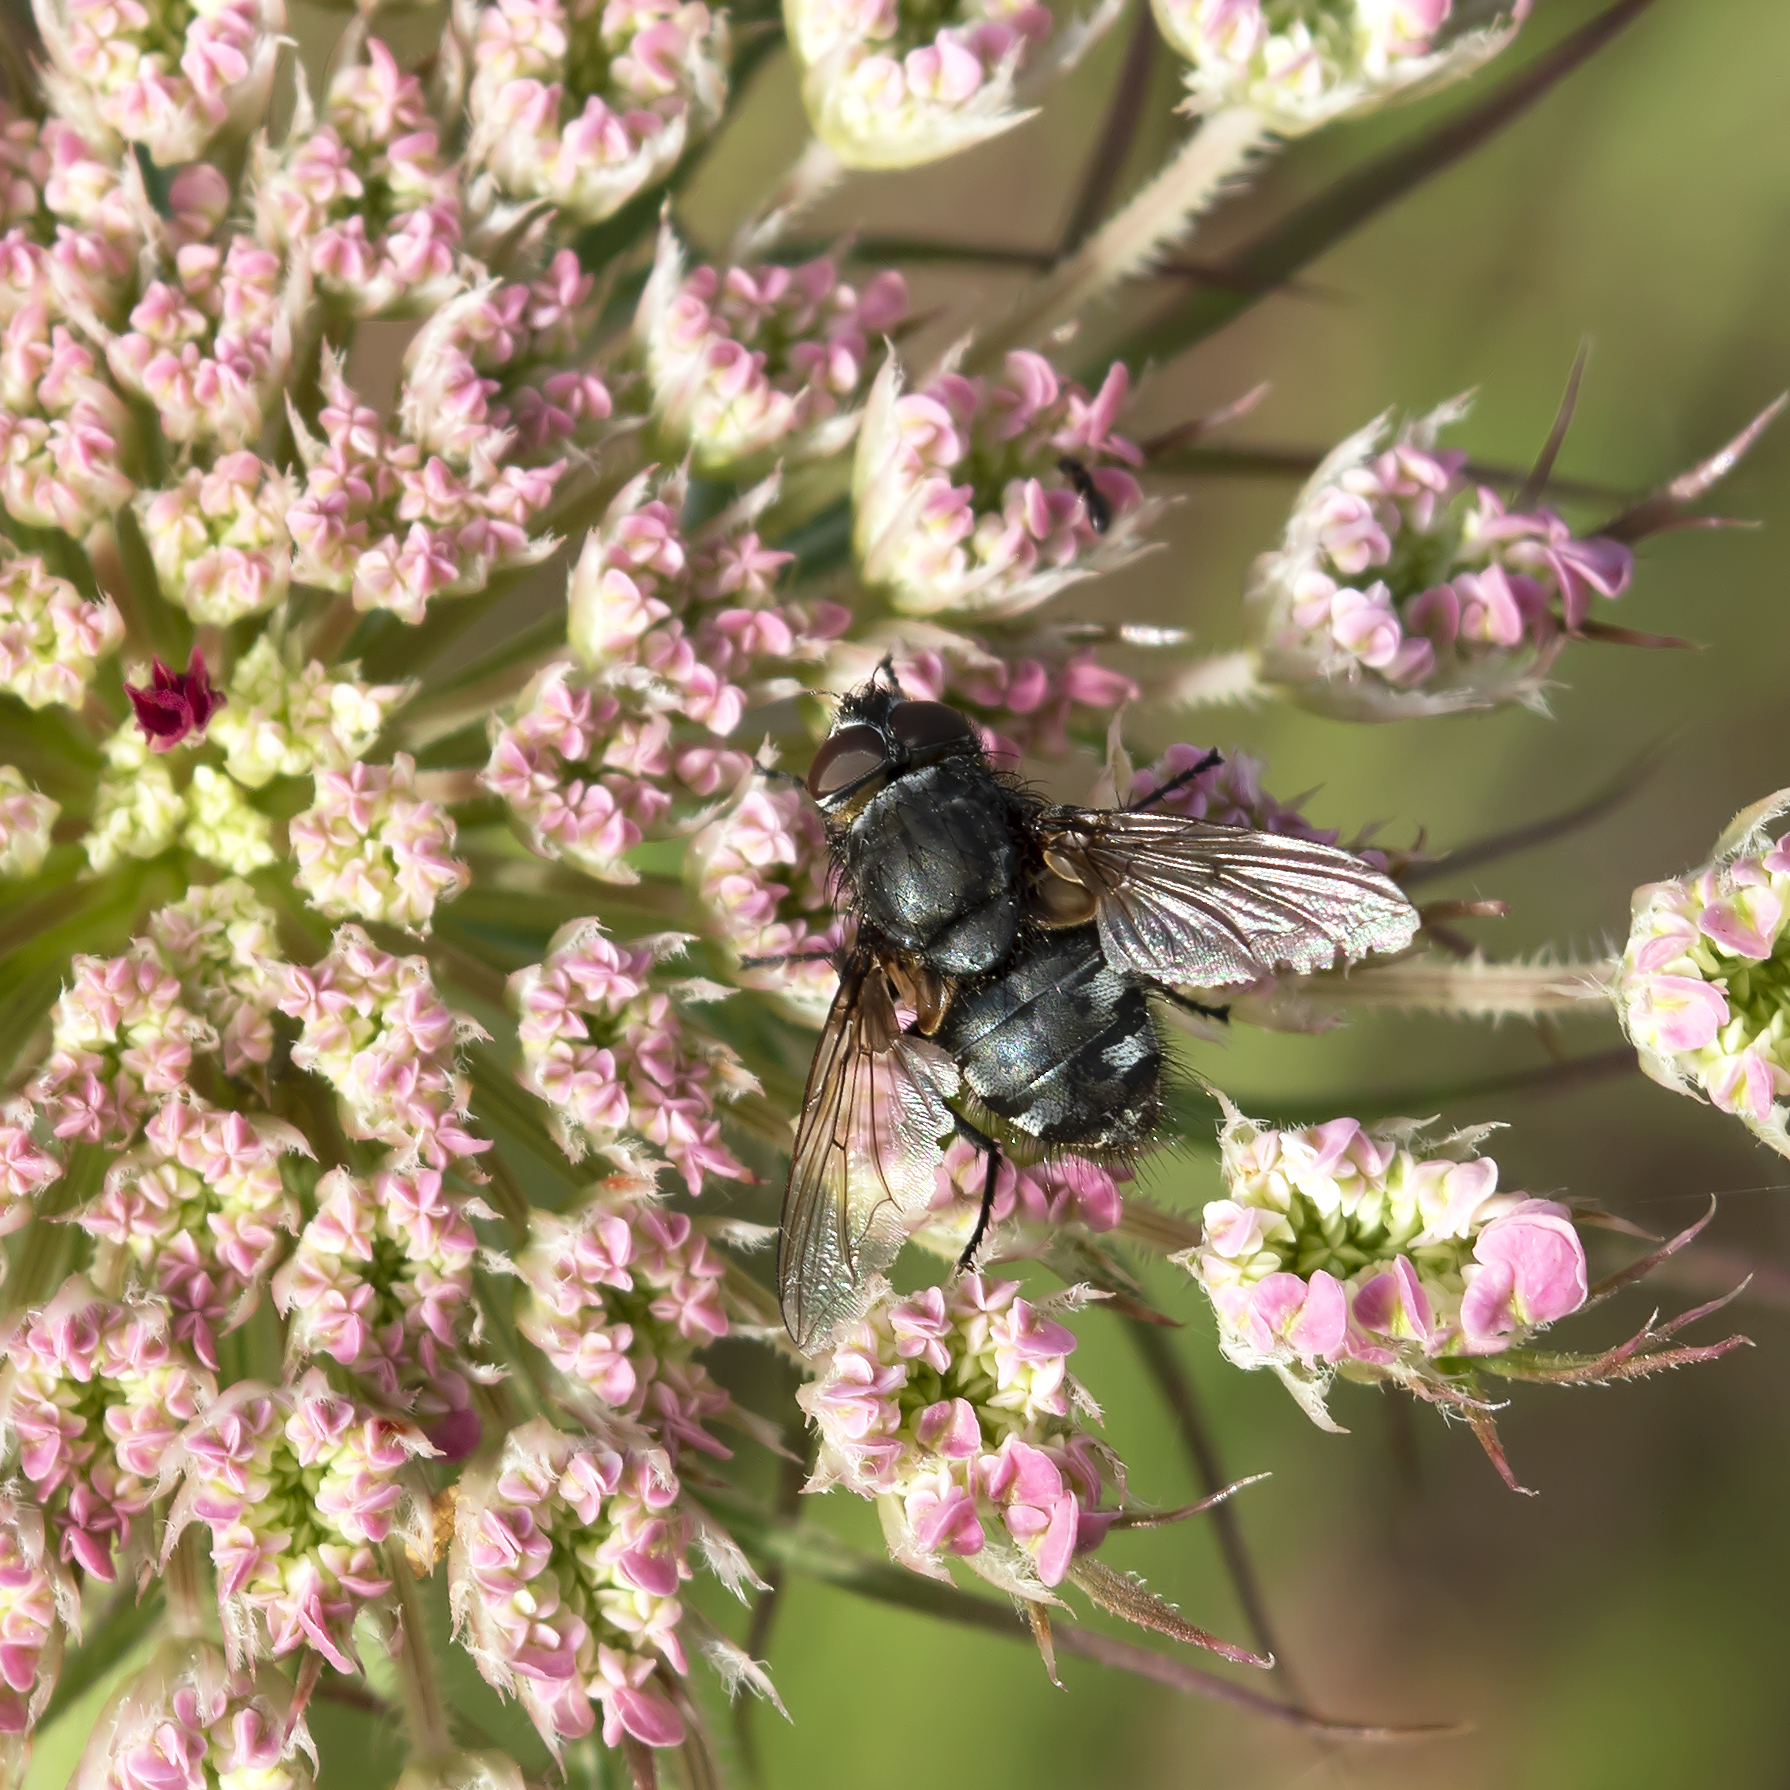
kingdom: Animalia
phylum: Arthropoda
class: Insecta
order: Diptera
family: Polleniidae
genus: Pollenia
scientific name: Pollenia
